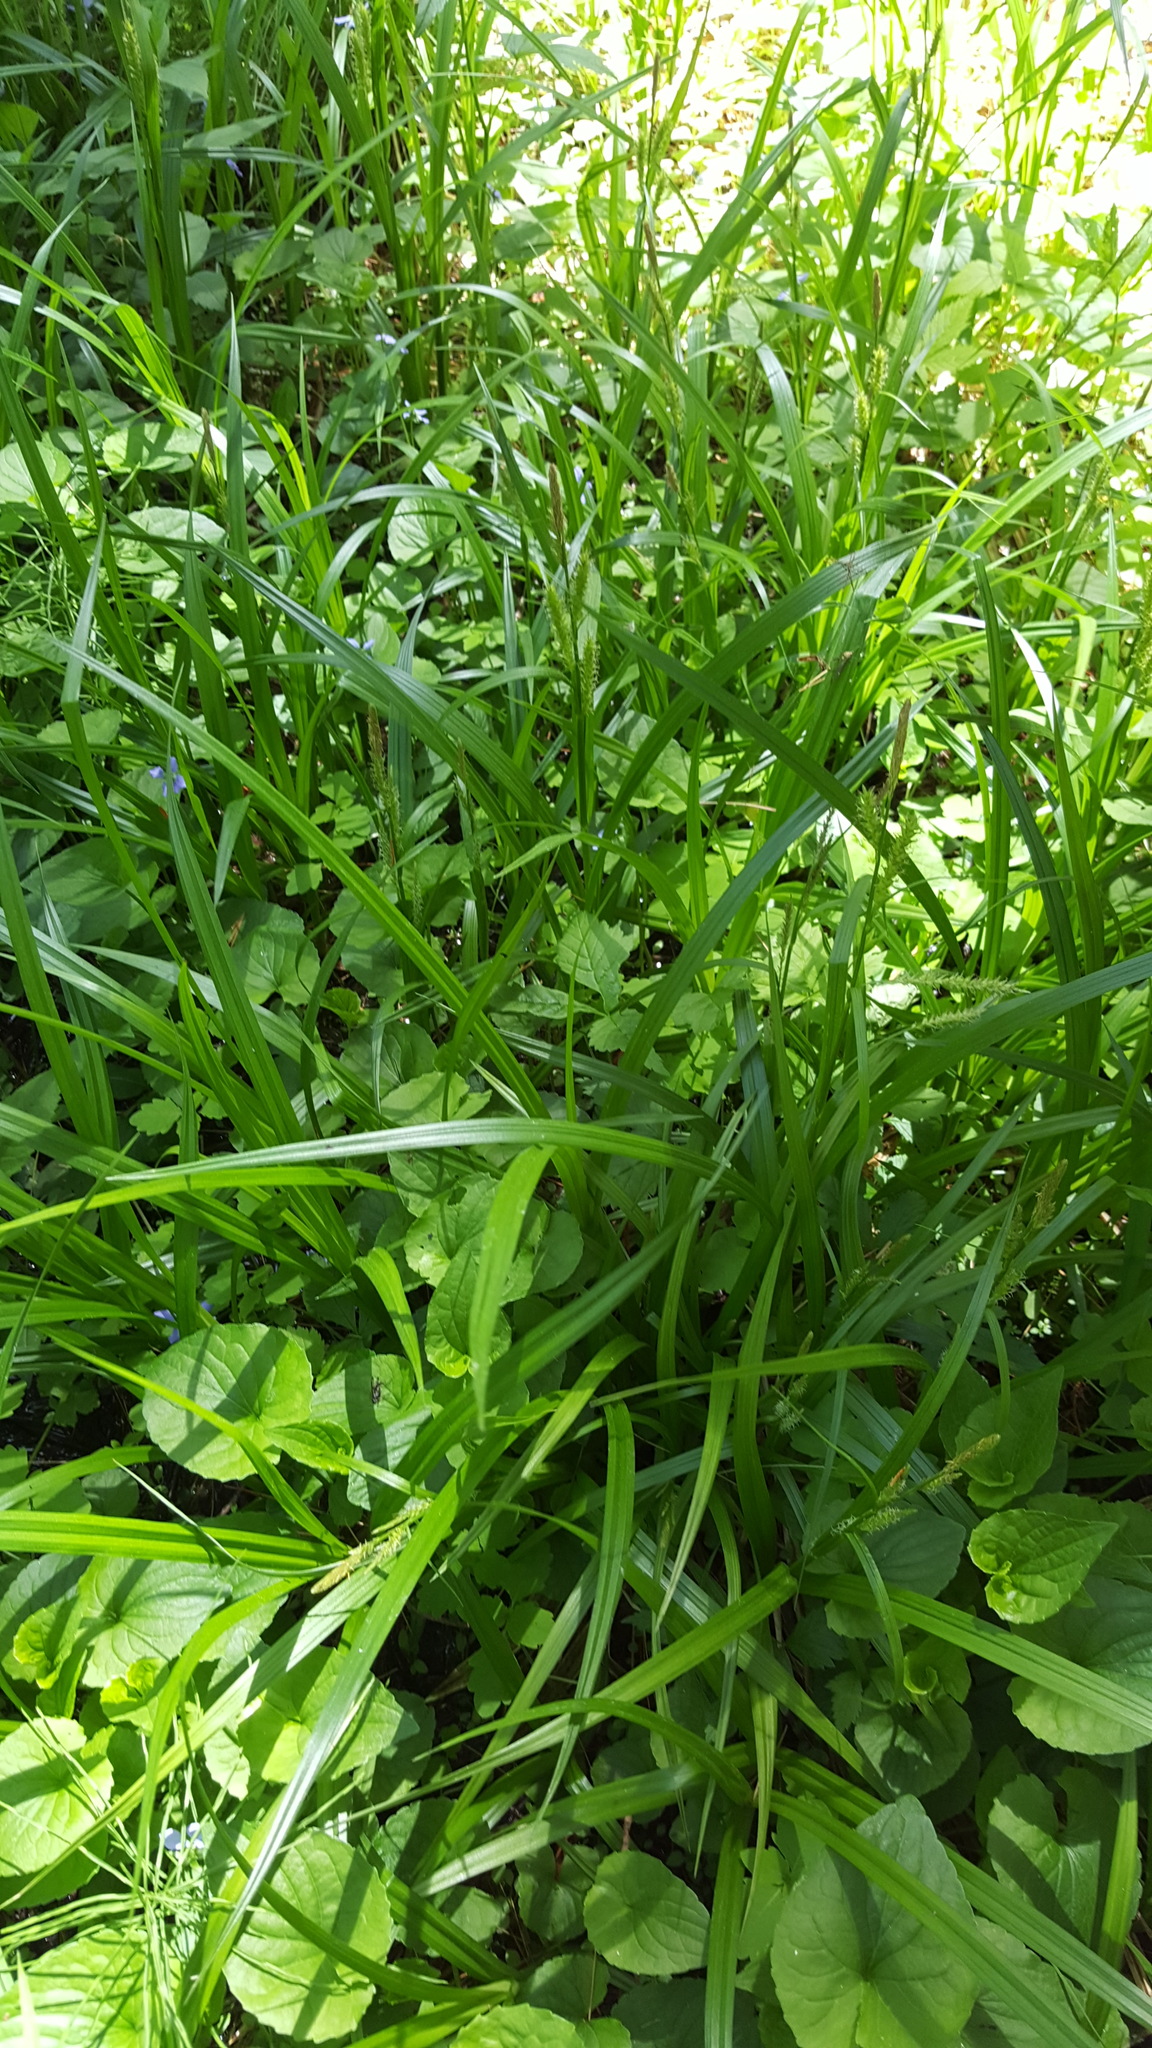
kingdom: Plantae
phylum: Tracheophyta
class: Liliopsida
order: Poales
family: Cyperaceae
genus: Carex
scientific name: Carex scabrata
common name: Eastern rough sedge
